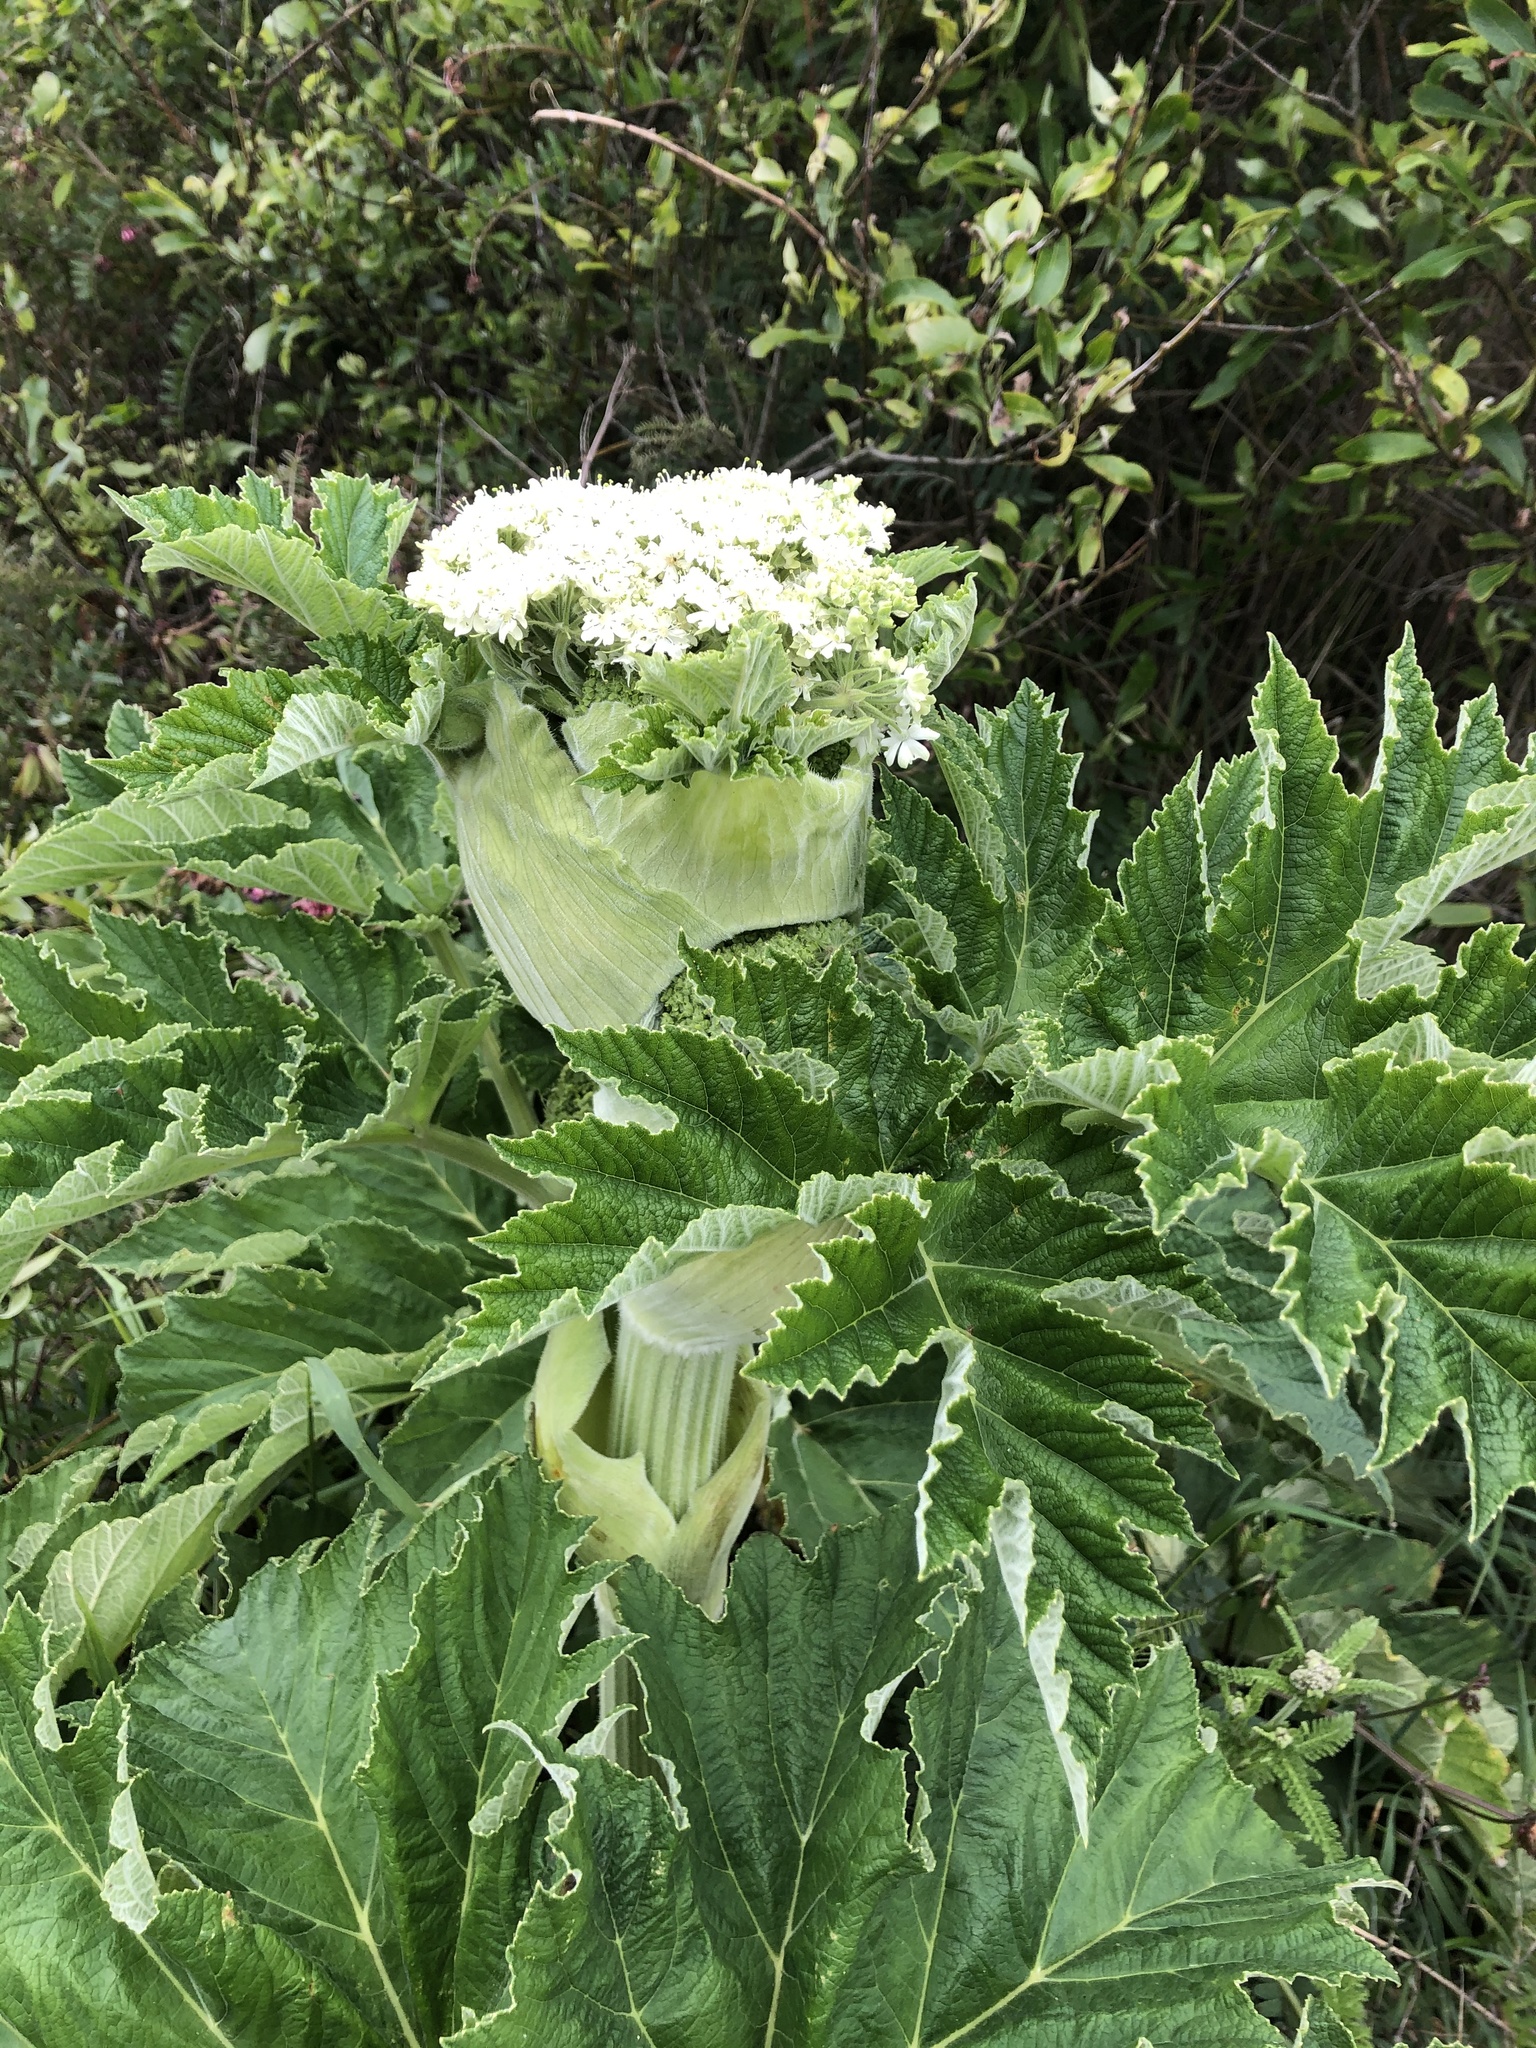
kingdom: Plantae
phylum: Tracheophyta
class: Magnoliopsida
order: Apiales
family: Apiaceae
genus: Heracleum
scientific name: Heracleum maximum
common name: American cow parsnip
